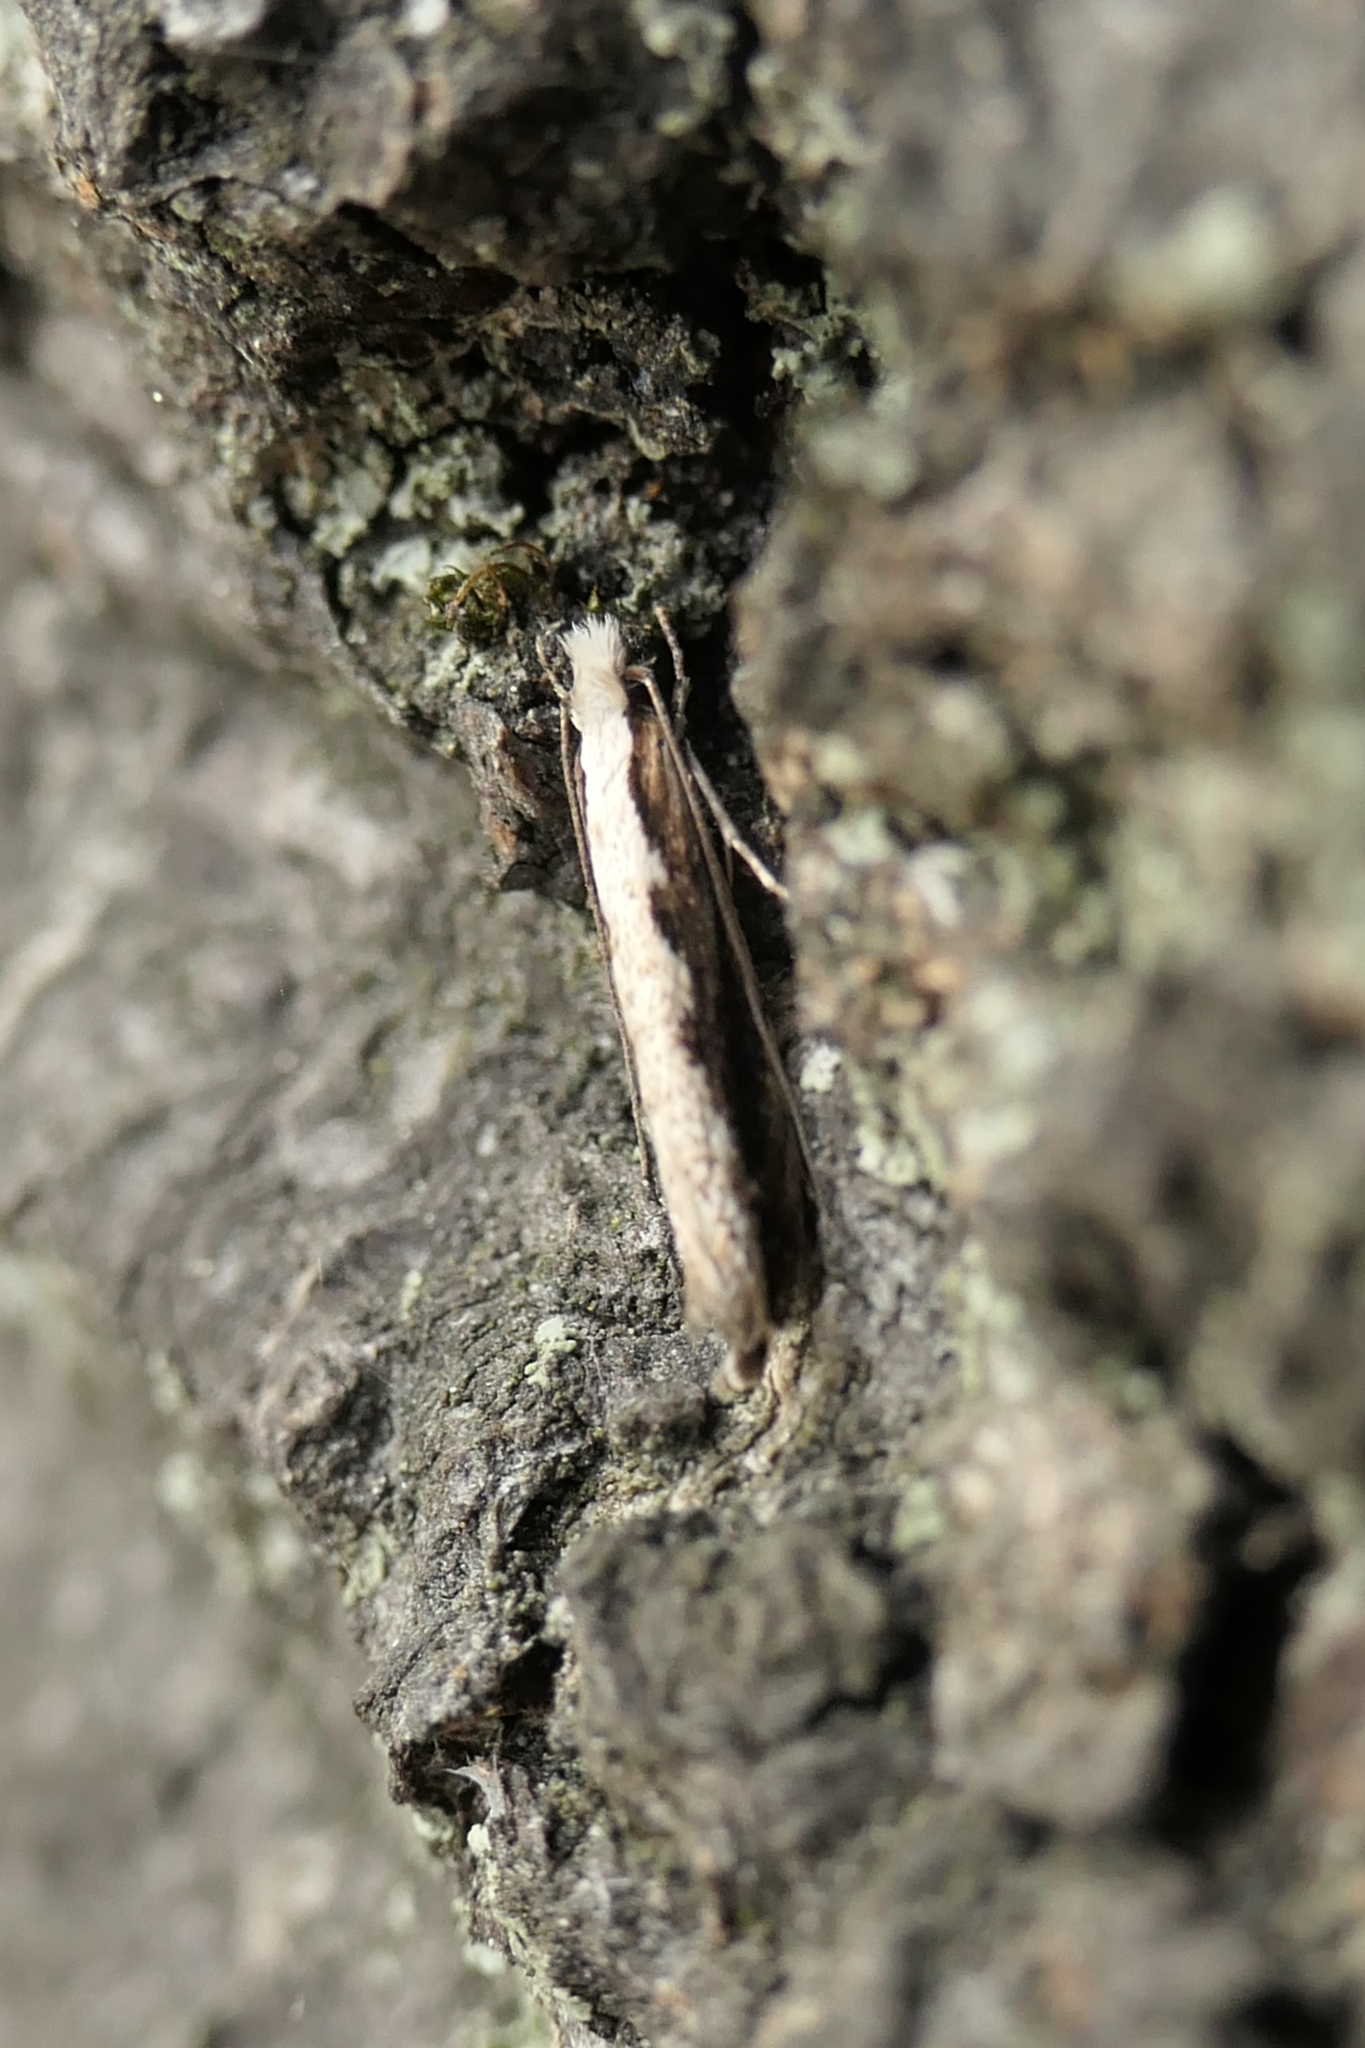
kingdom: Animalia
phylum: Arthropoda
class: Insecta
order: Lepidoptera
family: Tineidae
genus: Erechthias
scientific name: Erechthias fulguritella
